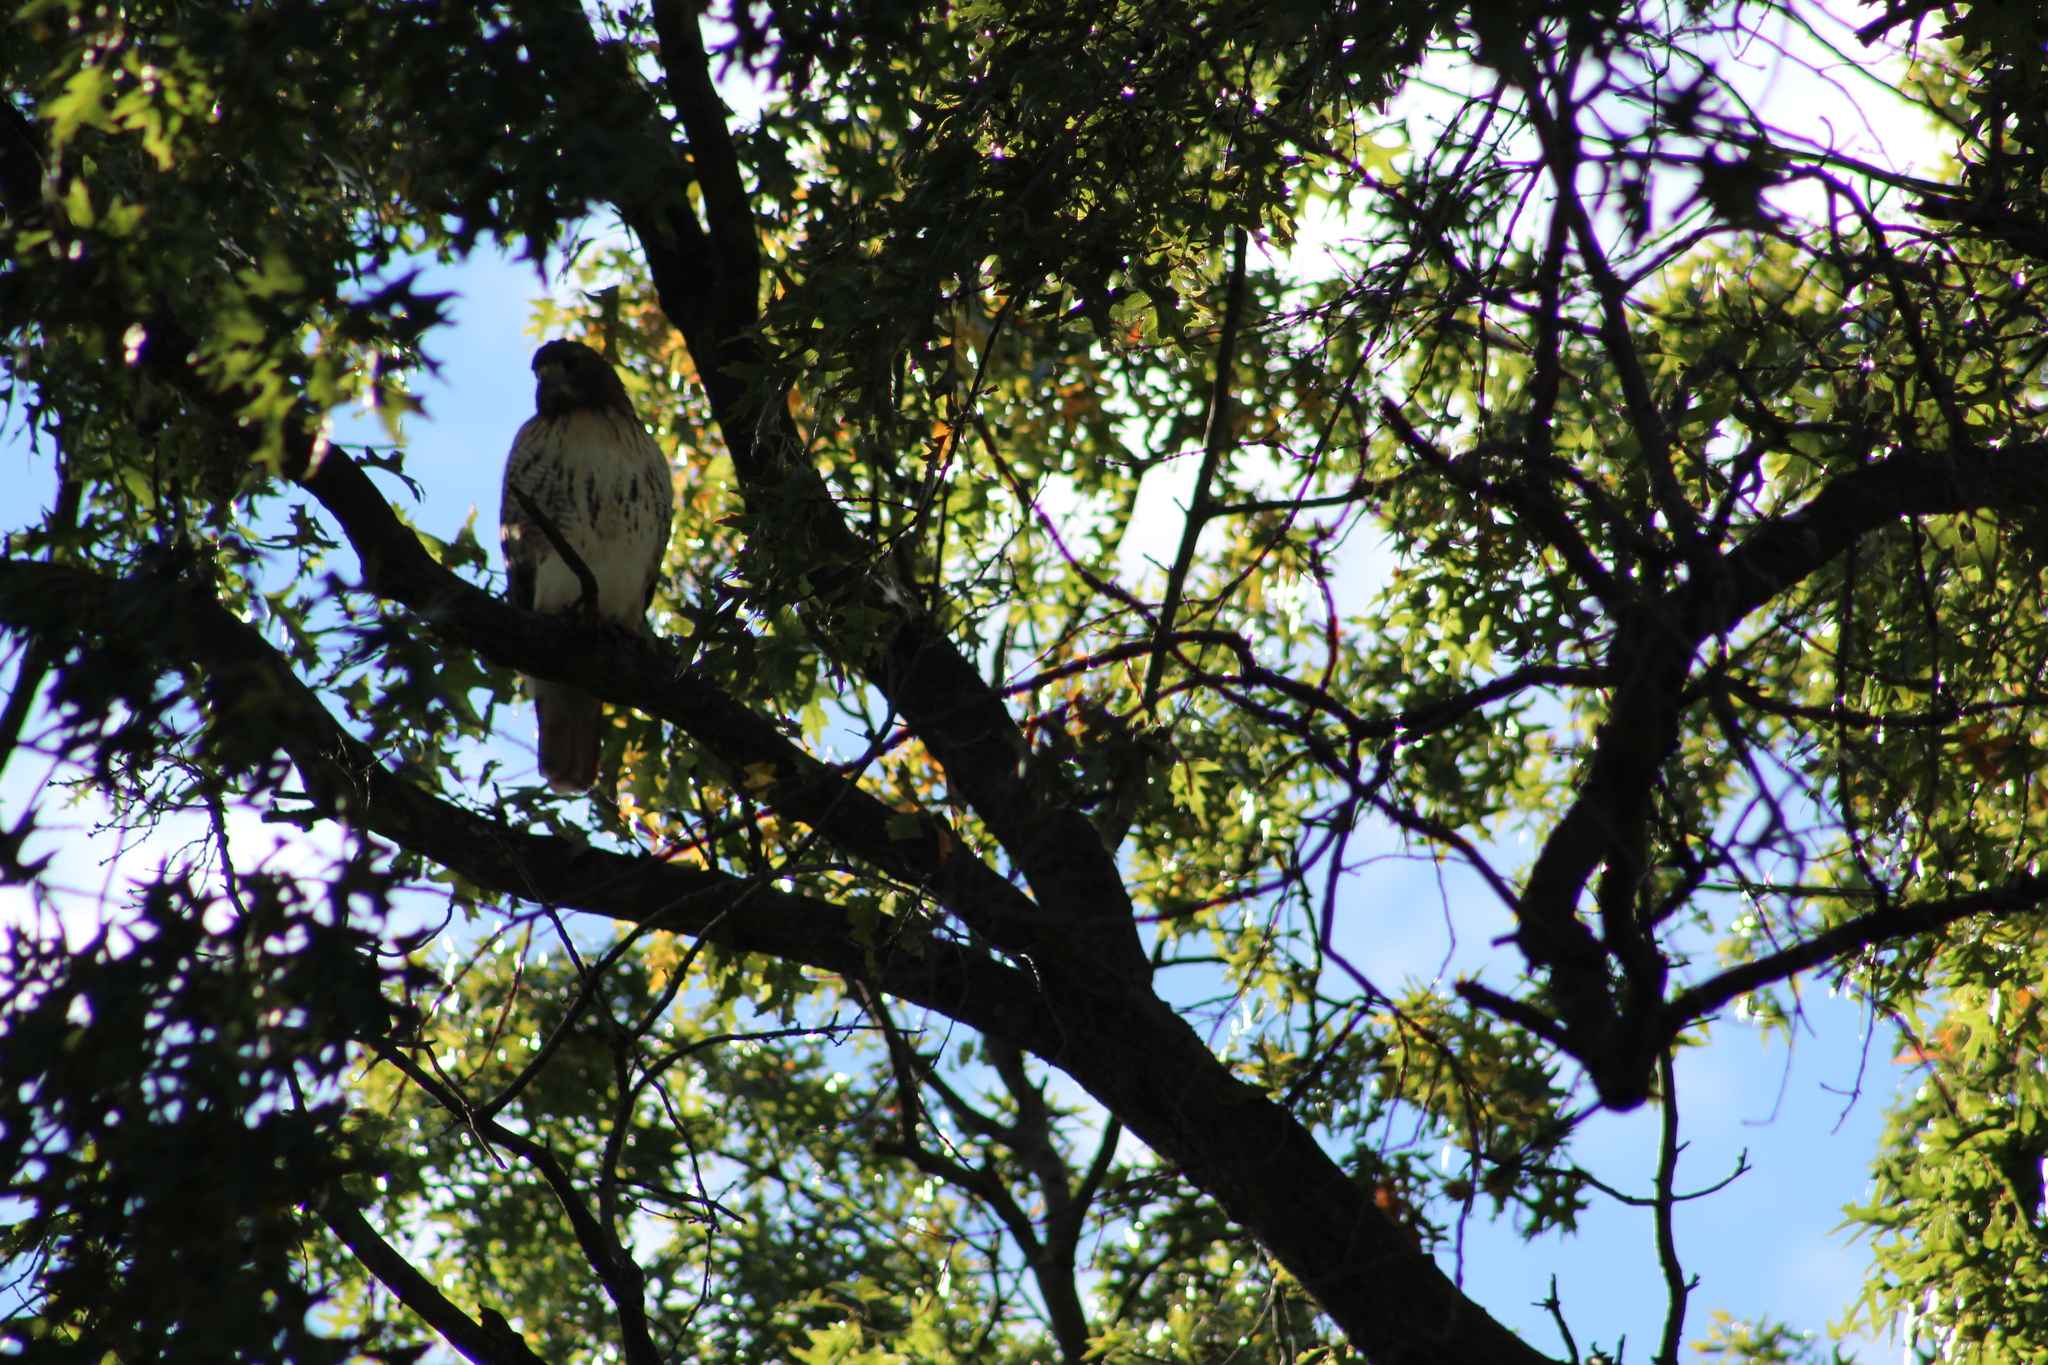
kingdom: Animalia
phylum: Chordata
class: Aves
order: Accipitriformes
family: Accipitridae
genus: Buteo
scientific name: Buteo jamaicensis
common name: Red-tailed hawk
